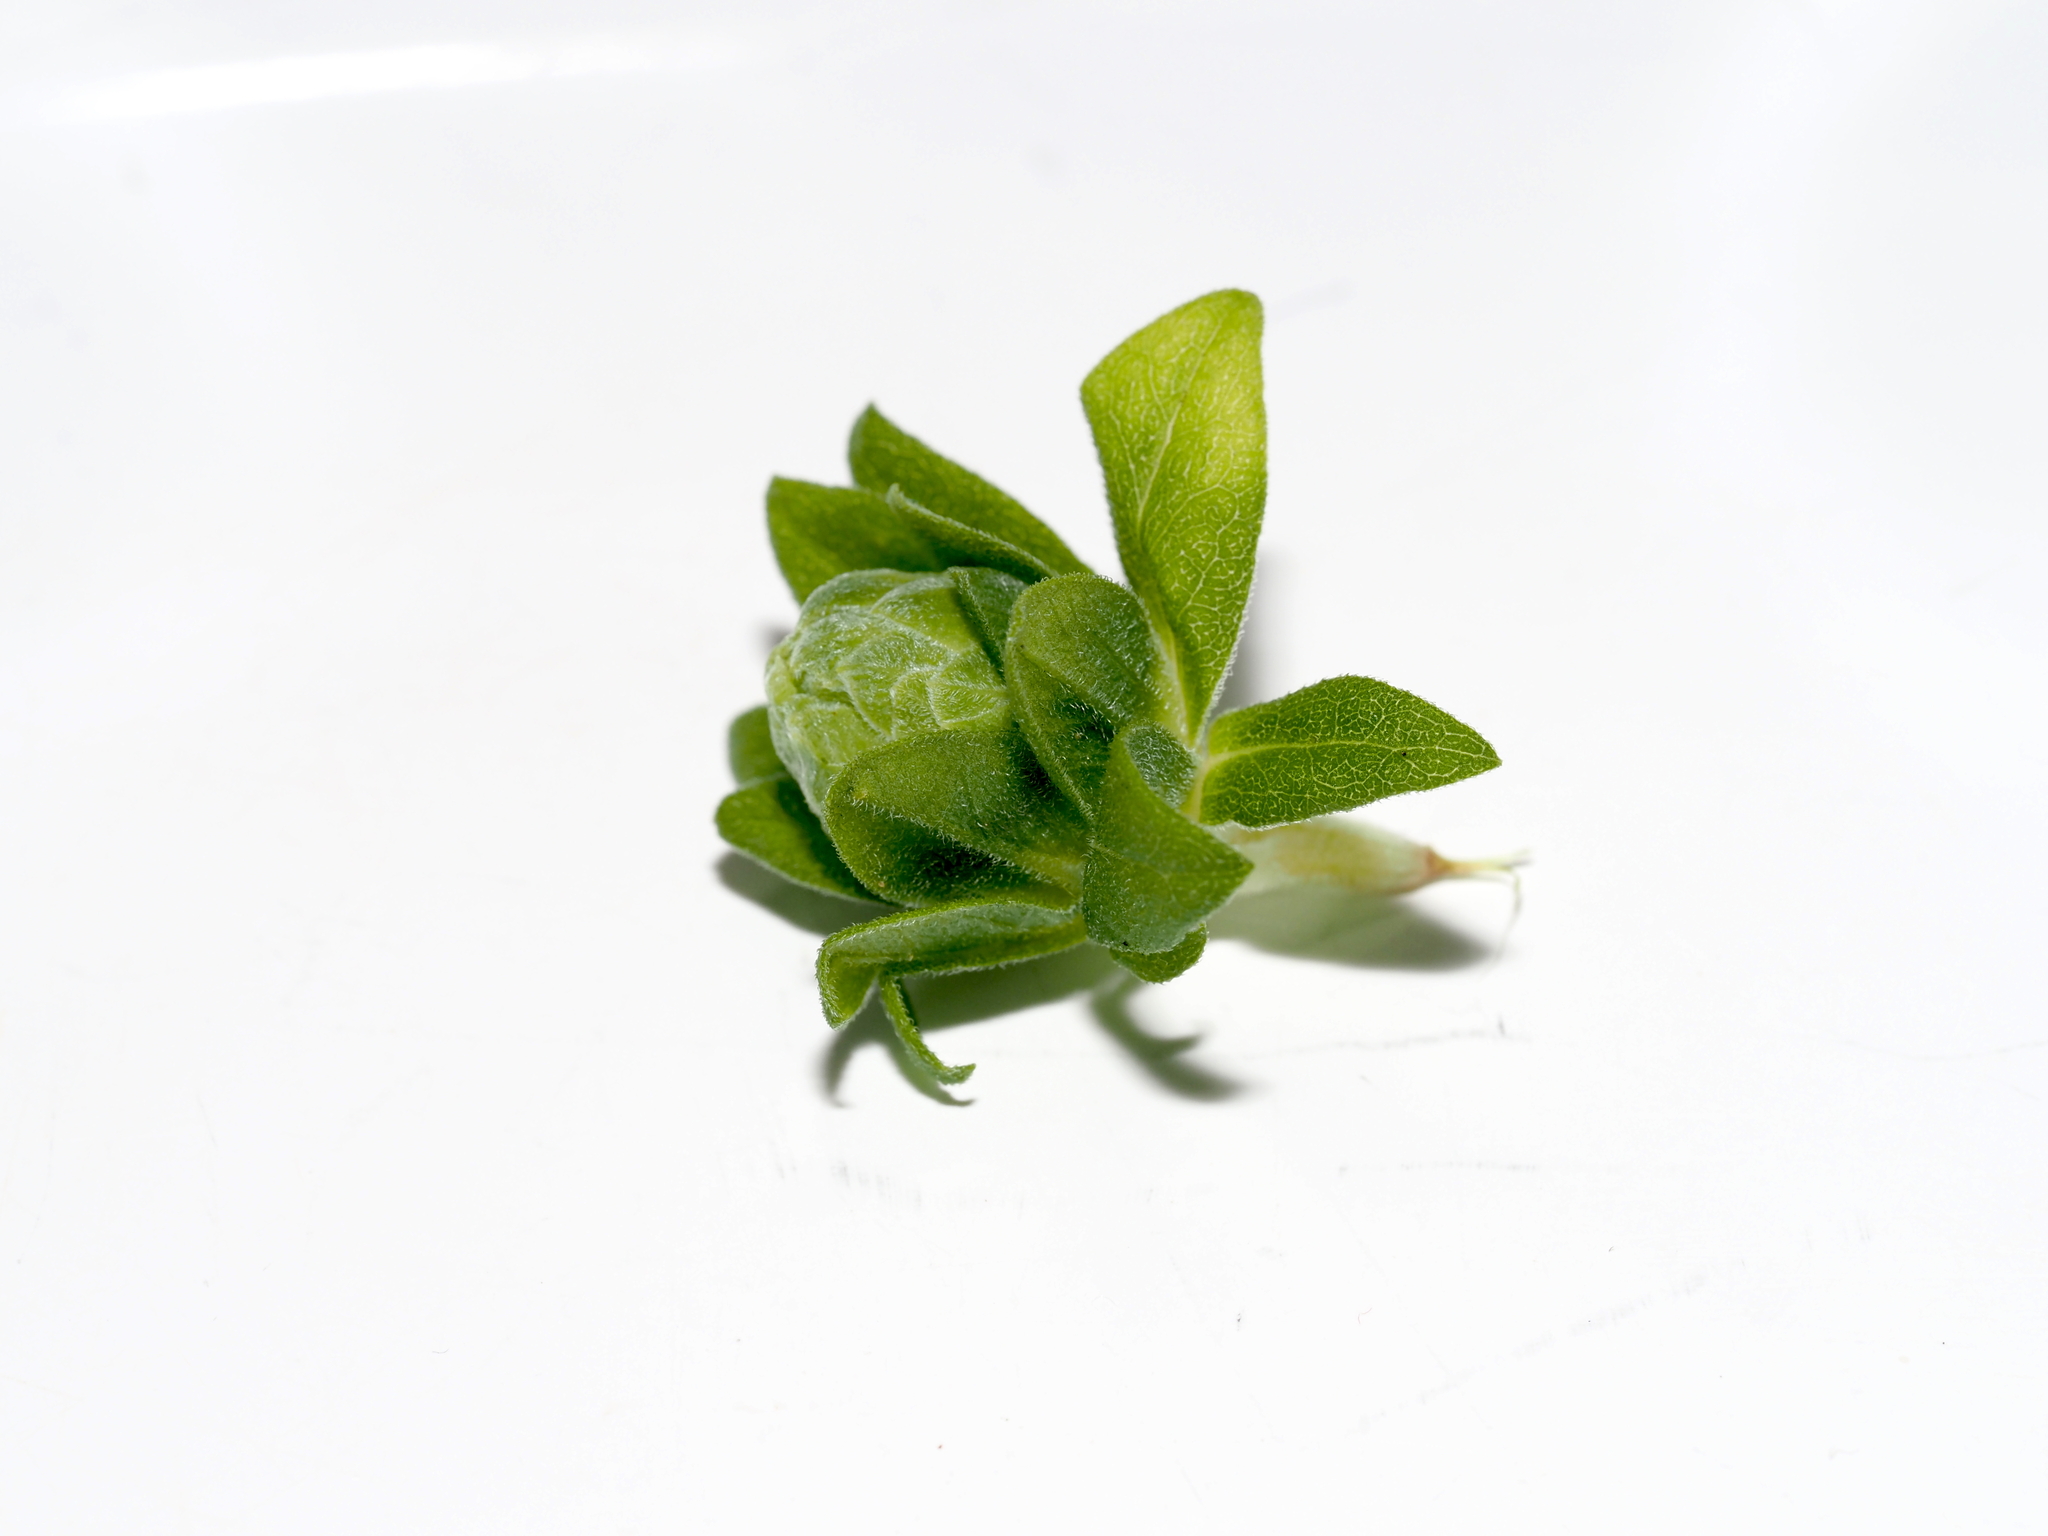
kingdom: Animalia
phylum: Arthropoda
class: Insecta
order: Diptera
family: Tephritidae
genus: Procecidochares
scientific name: Procecidochares atra
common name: Goldenrod brussels sprout gall fly
